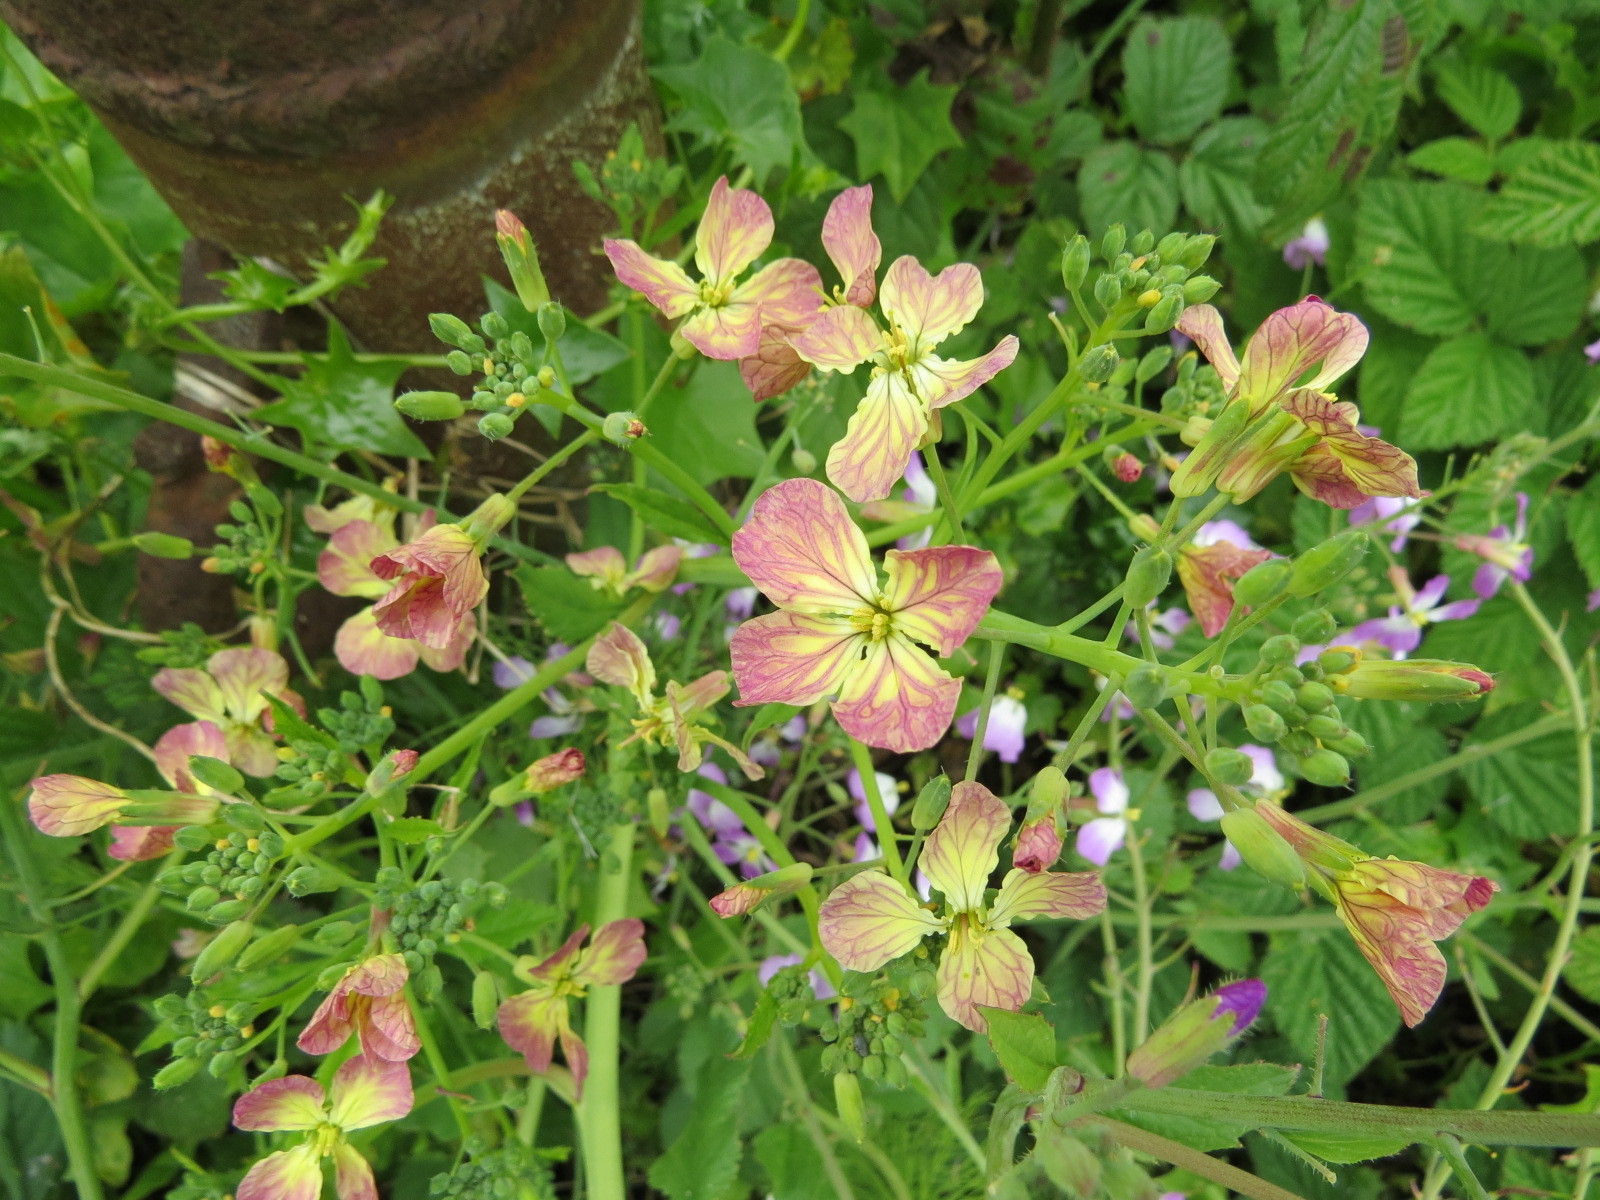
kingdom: Plantae
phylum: Tracheophyta
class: Magnoliopsida
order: Brassicales
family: Brassicaceae
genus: Raphanus
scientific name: Raphanus sativus
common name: Cultivated radish
